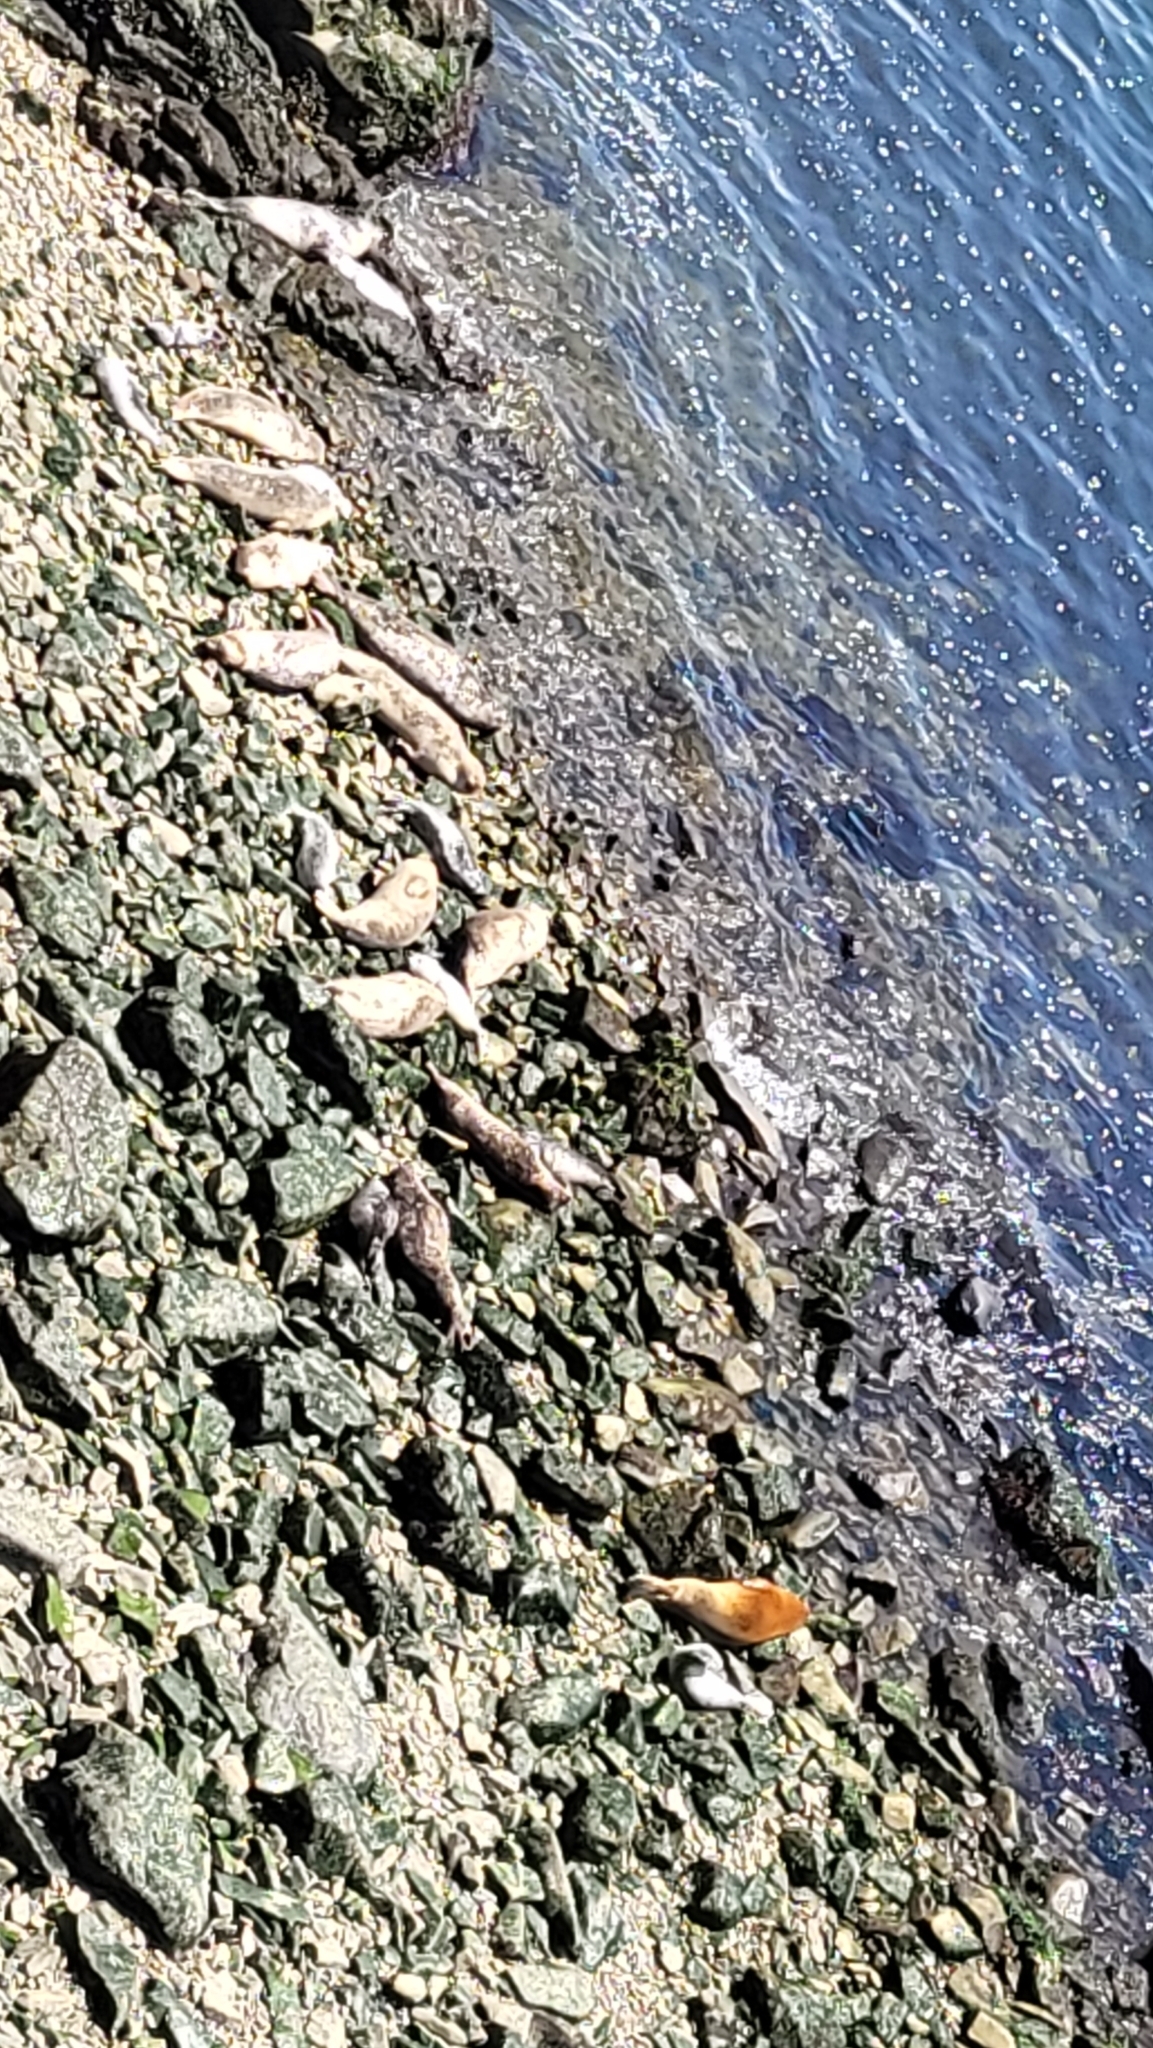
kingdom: Animalia
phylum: Chordata
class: Mammalia
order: Carnivora
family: Phocidae
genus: Phoca
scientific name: Phoca vitulina
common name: Harbor seal
